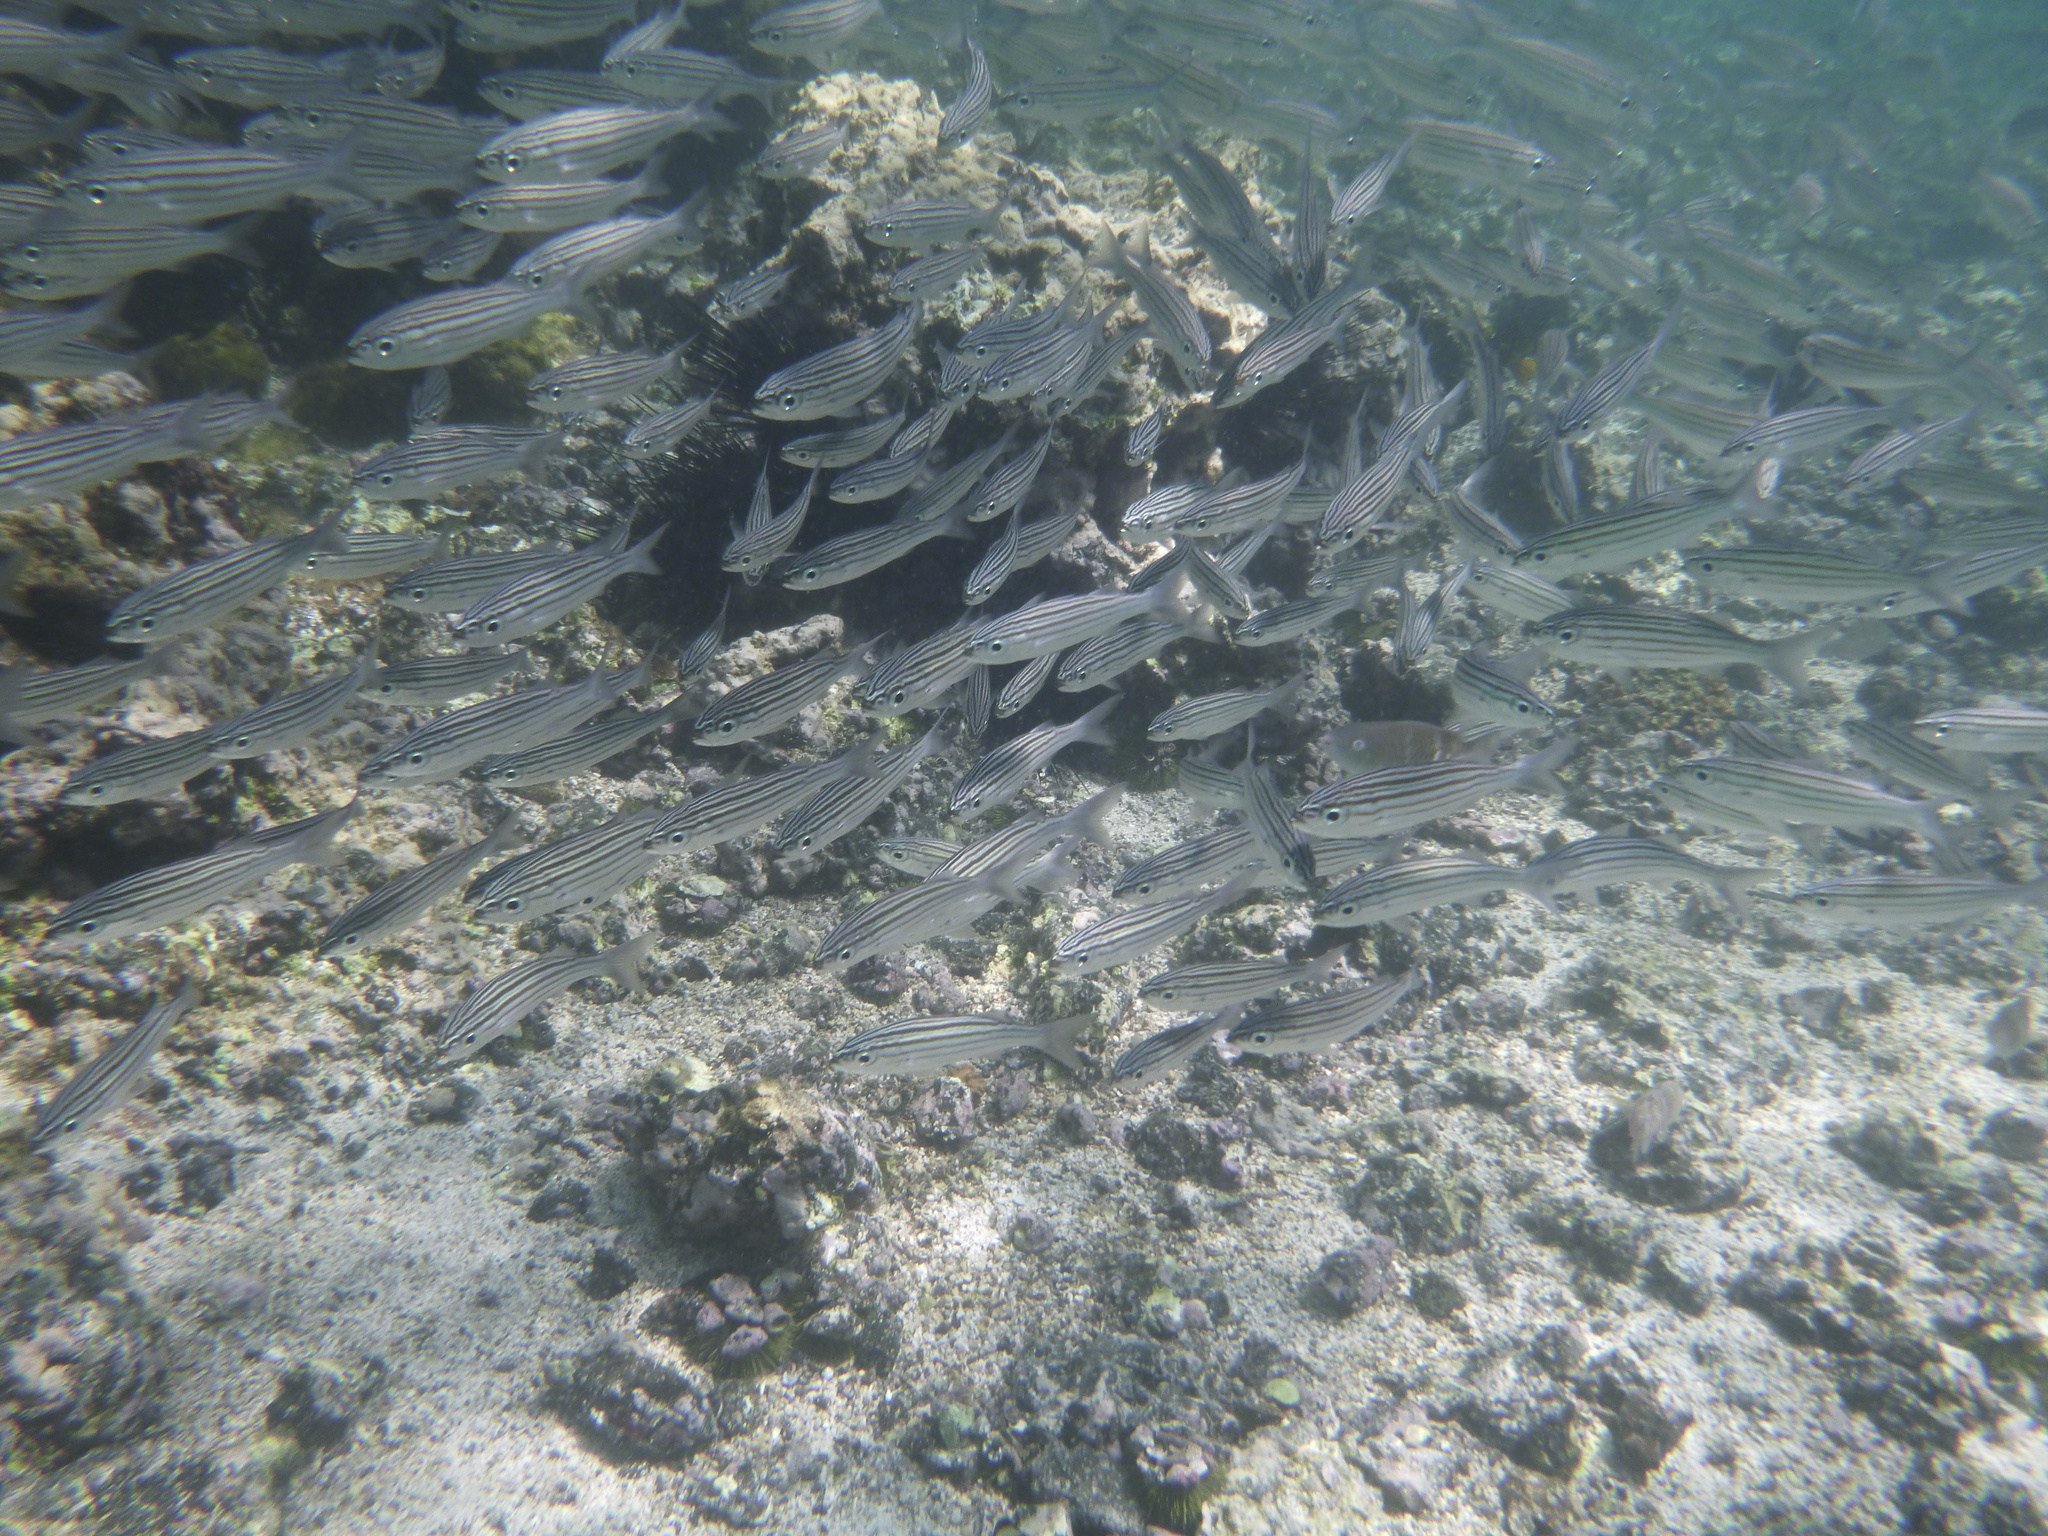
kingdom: Animalia
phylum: Chordata
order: Perciformes
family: Haemulidae
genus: Xenocys
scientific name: Xenocys jessiae
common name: Black-striped salema
